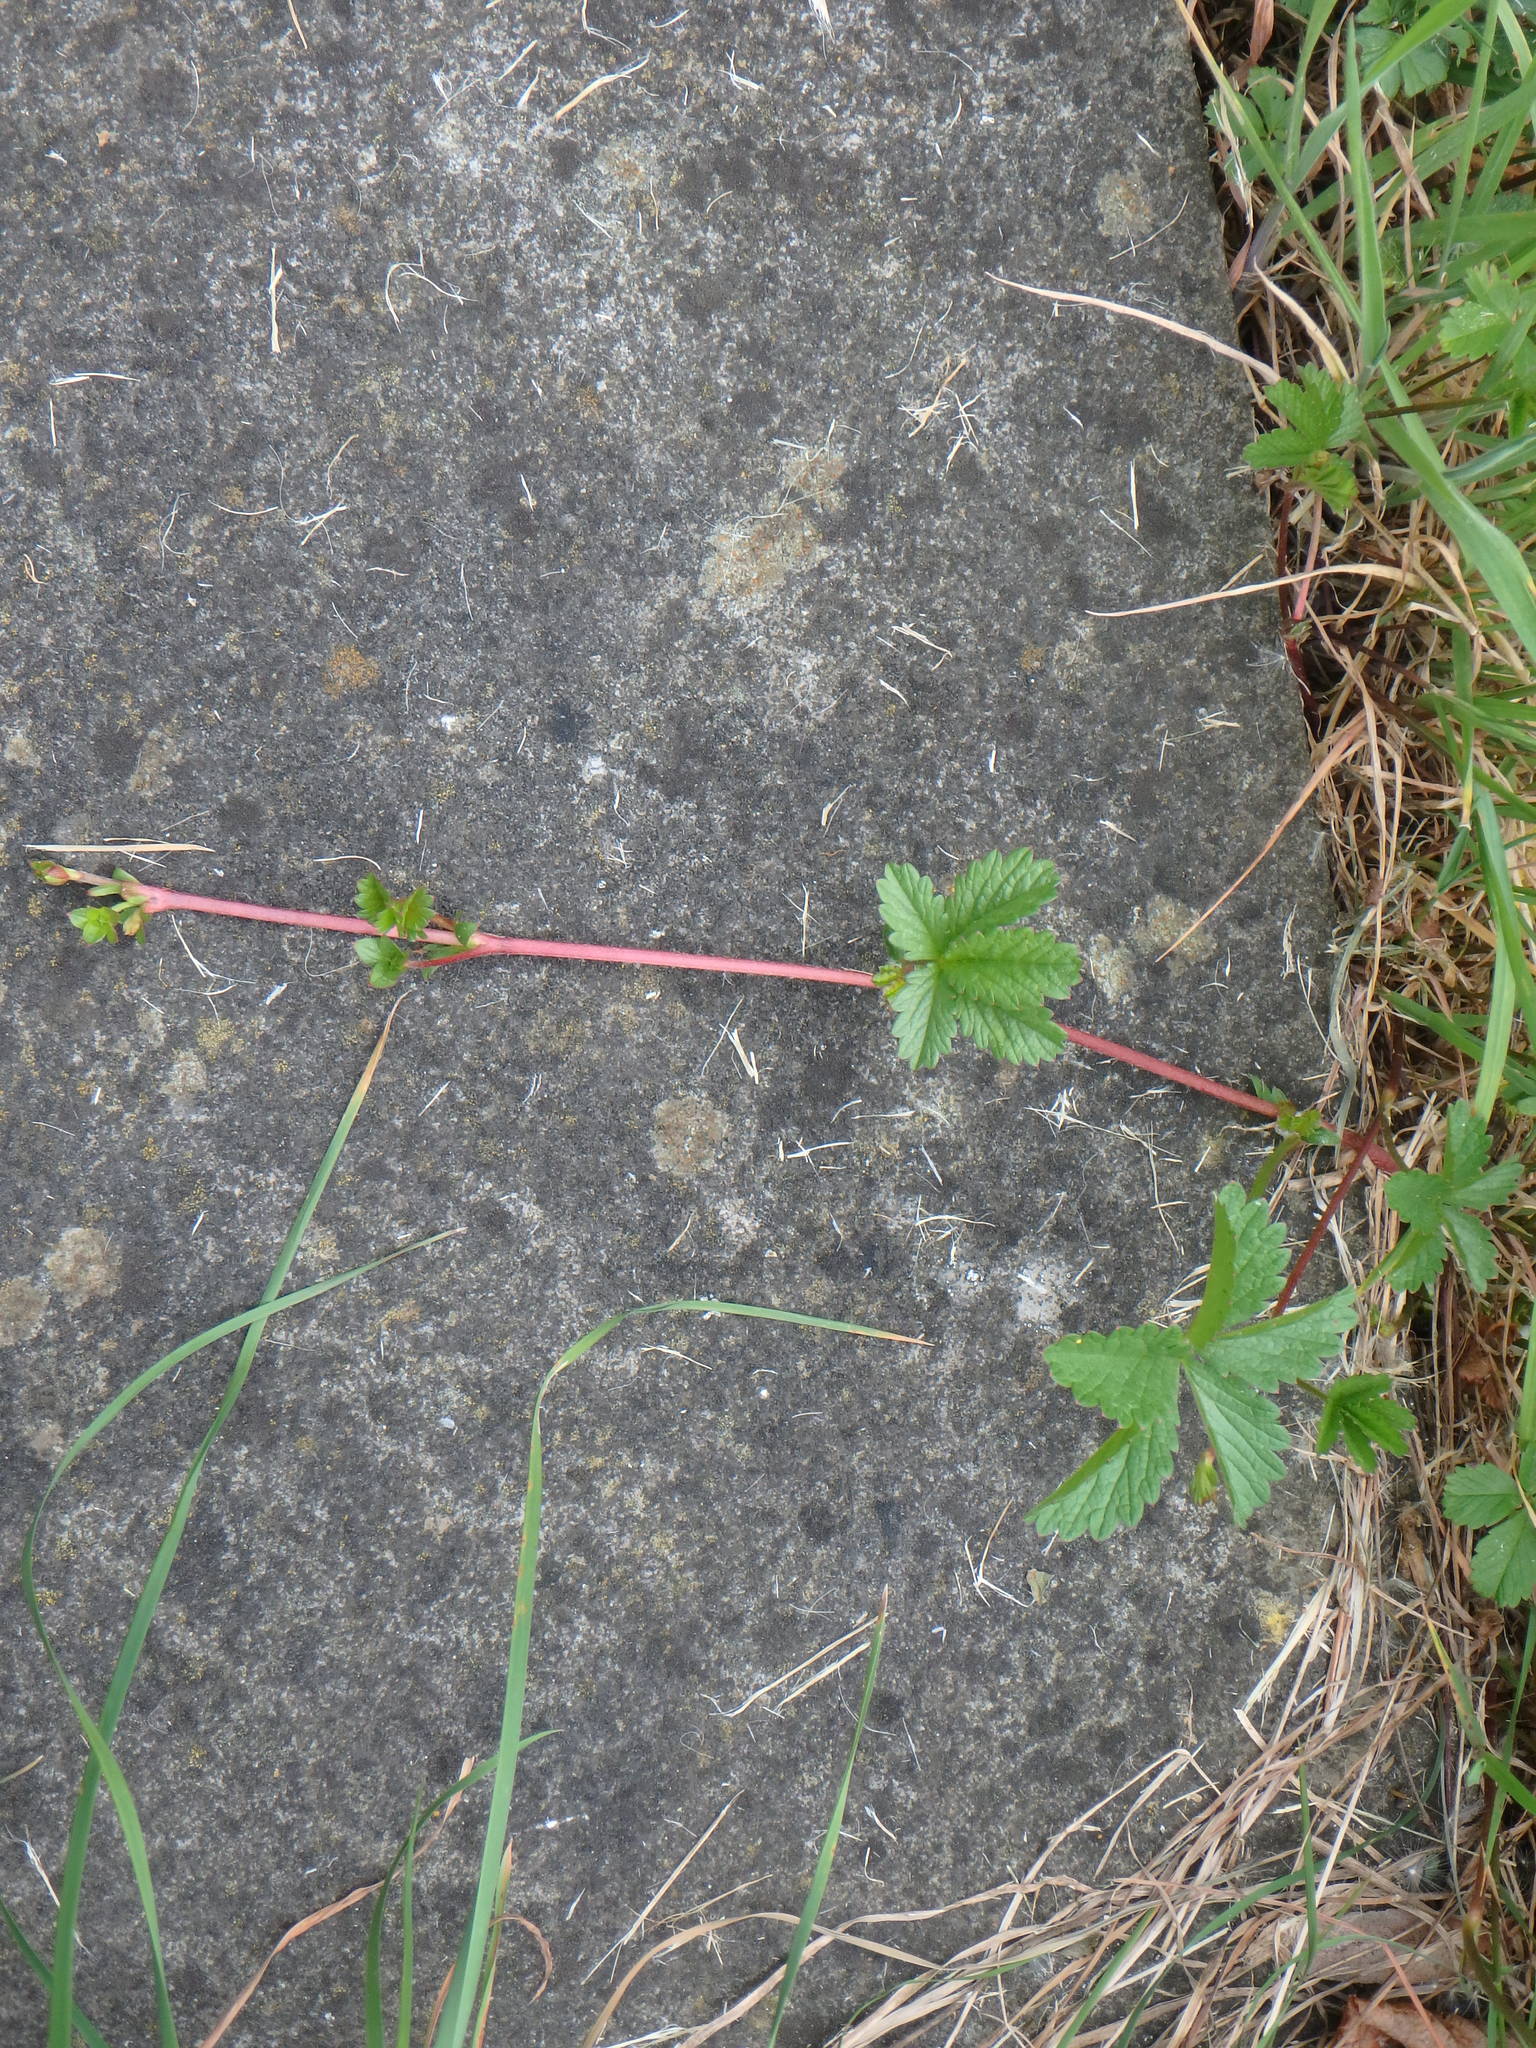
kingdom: Plantae
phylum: Tracheophyta
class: Magnoliopsida
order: Rosales
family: Rosaceae
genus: Potentilla
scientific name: Potentilla reptans
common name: Creeping cinquefoil
